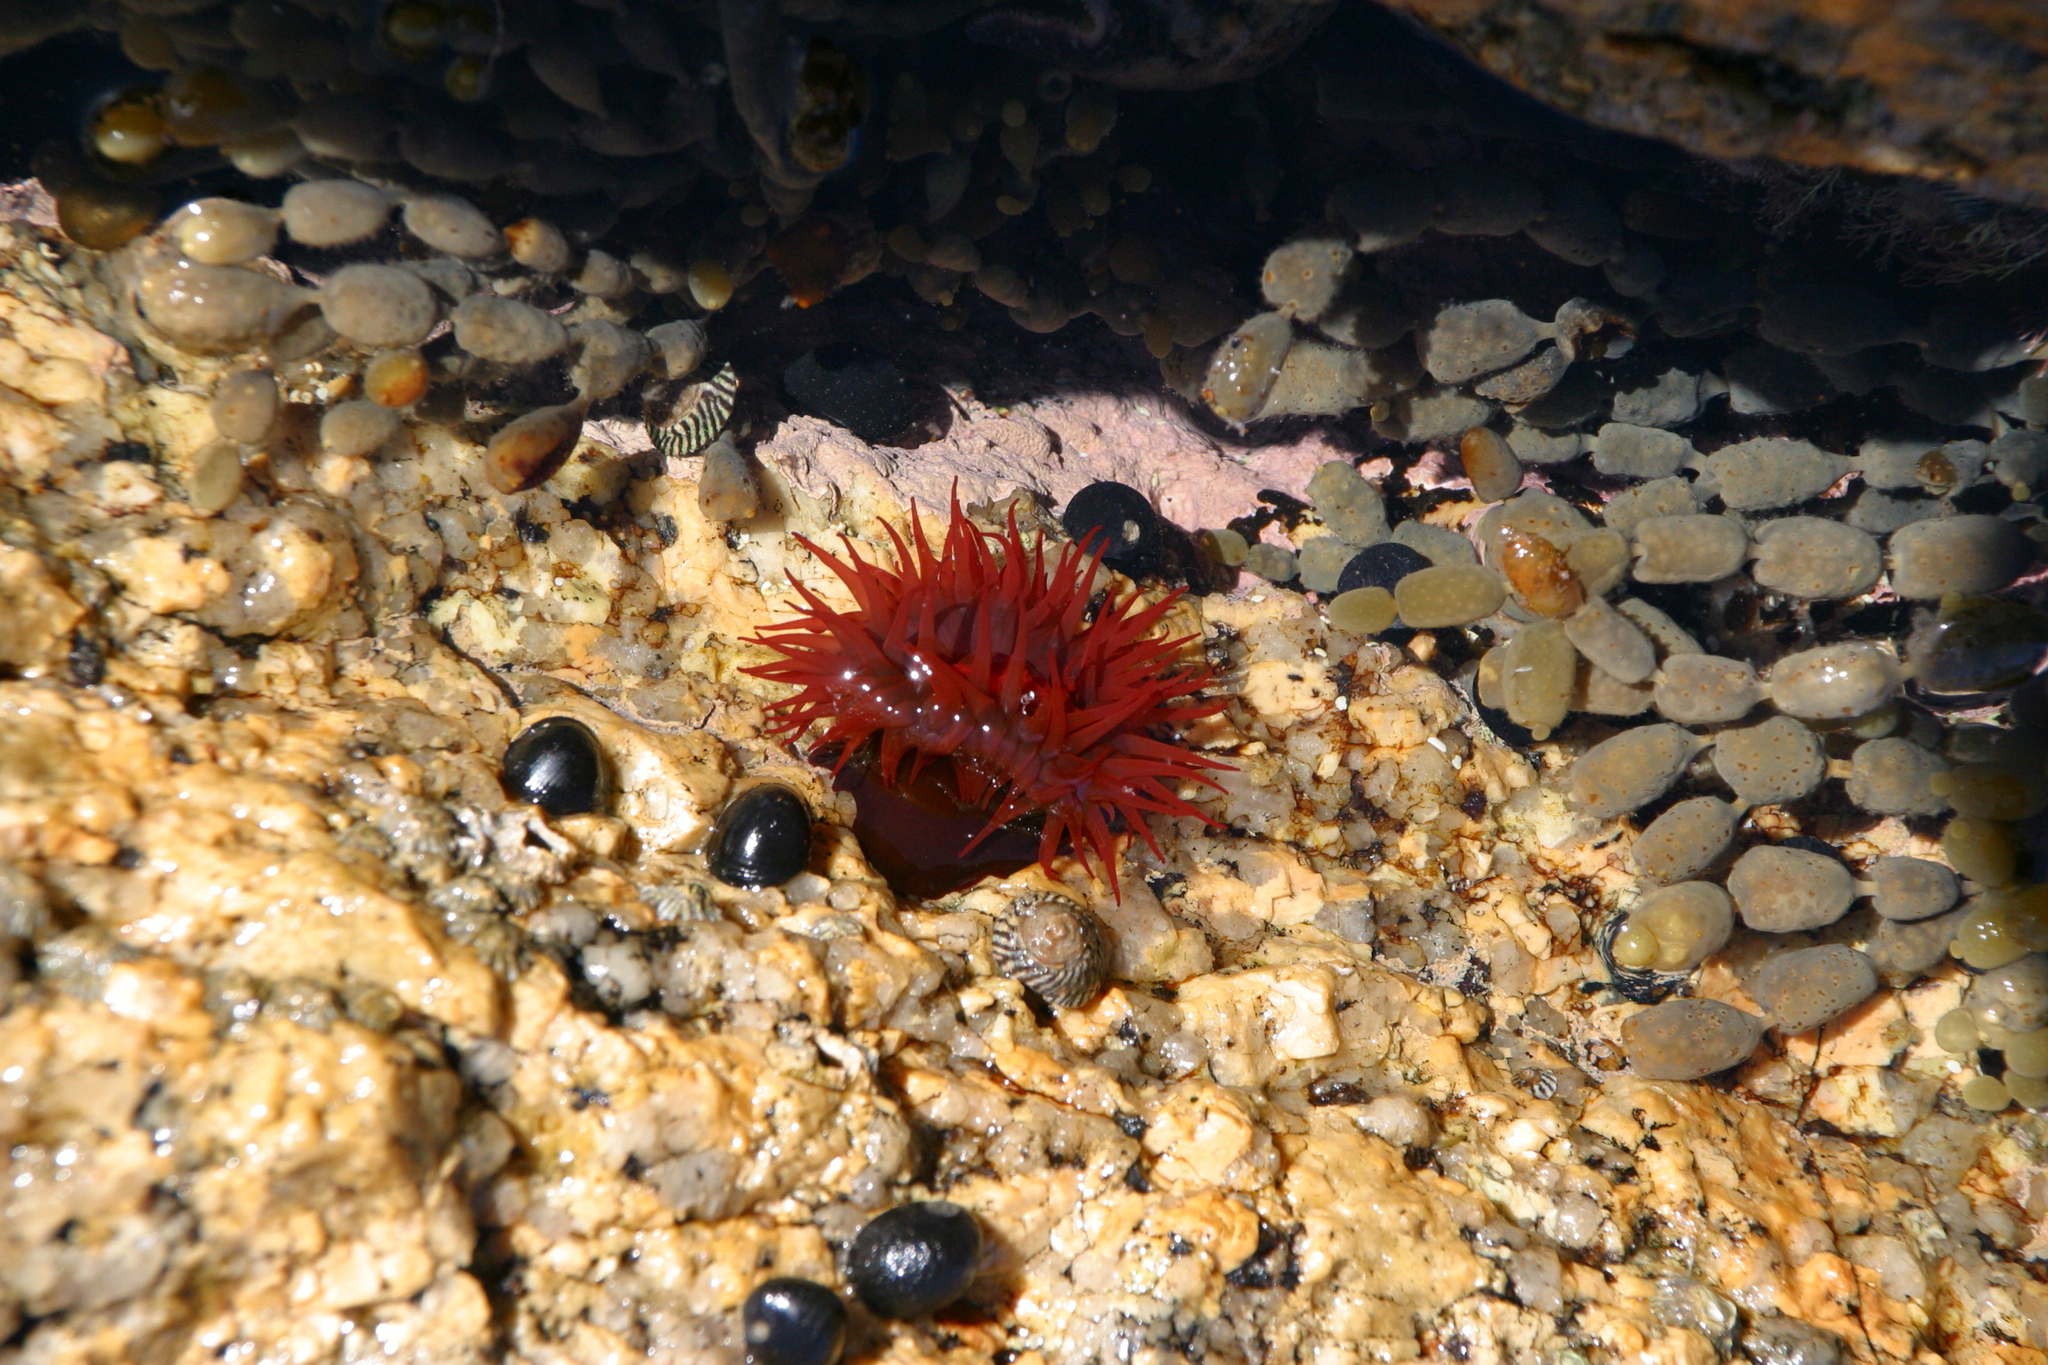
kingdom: Animalia
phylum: Cnidaria
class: Anthozoa
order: Actiniaria
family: Actiniidae
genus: Actinia
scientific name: Actinia tenebrosa
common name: Waratah anemone
